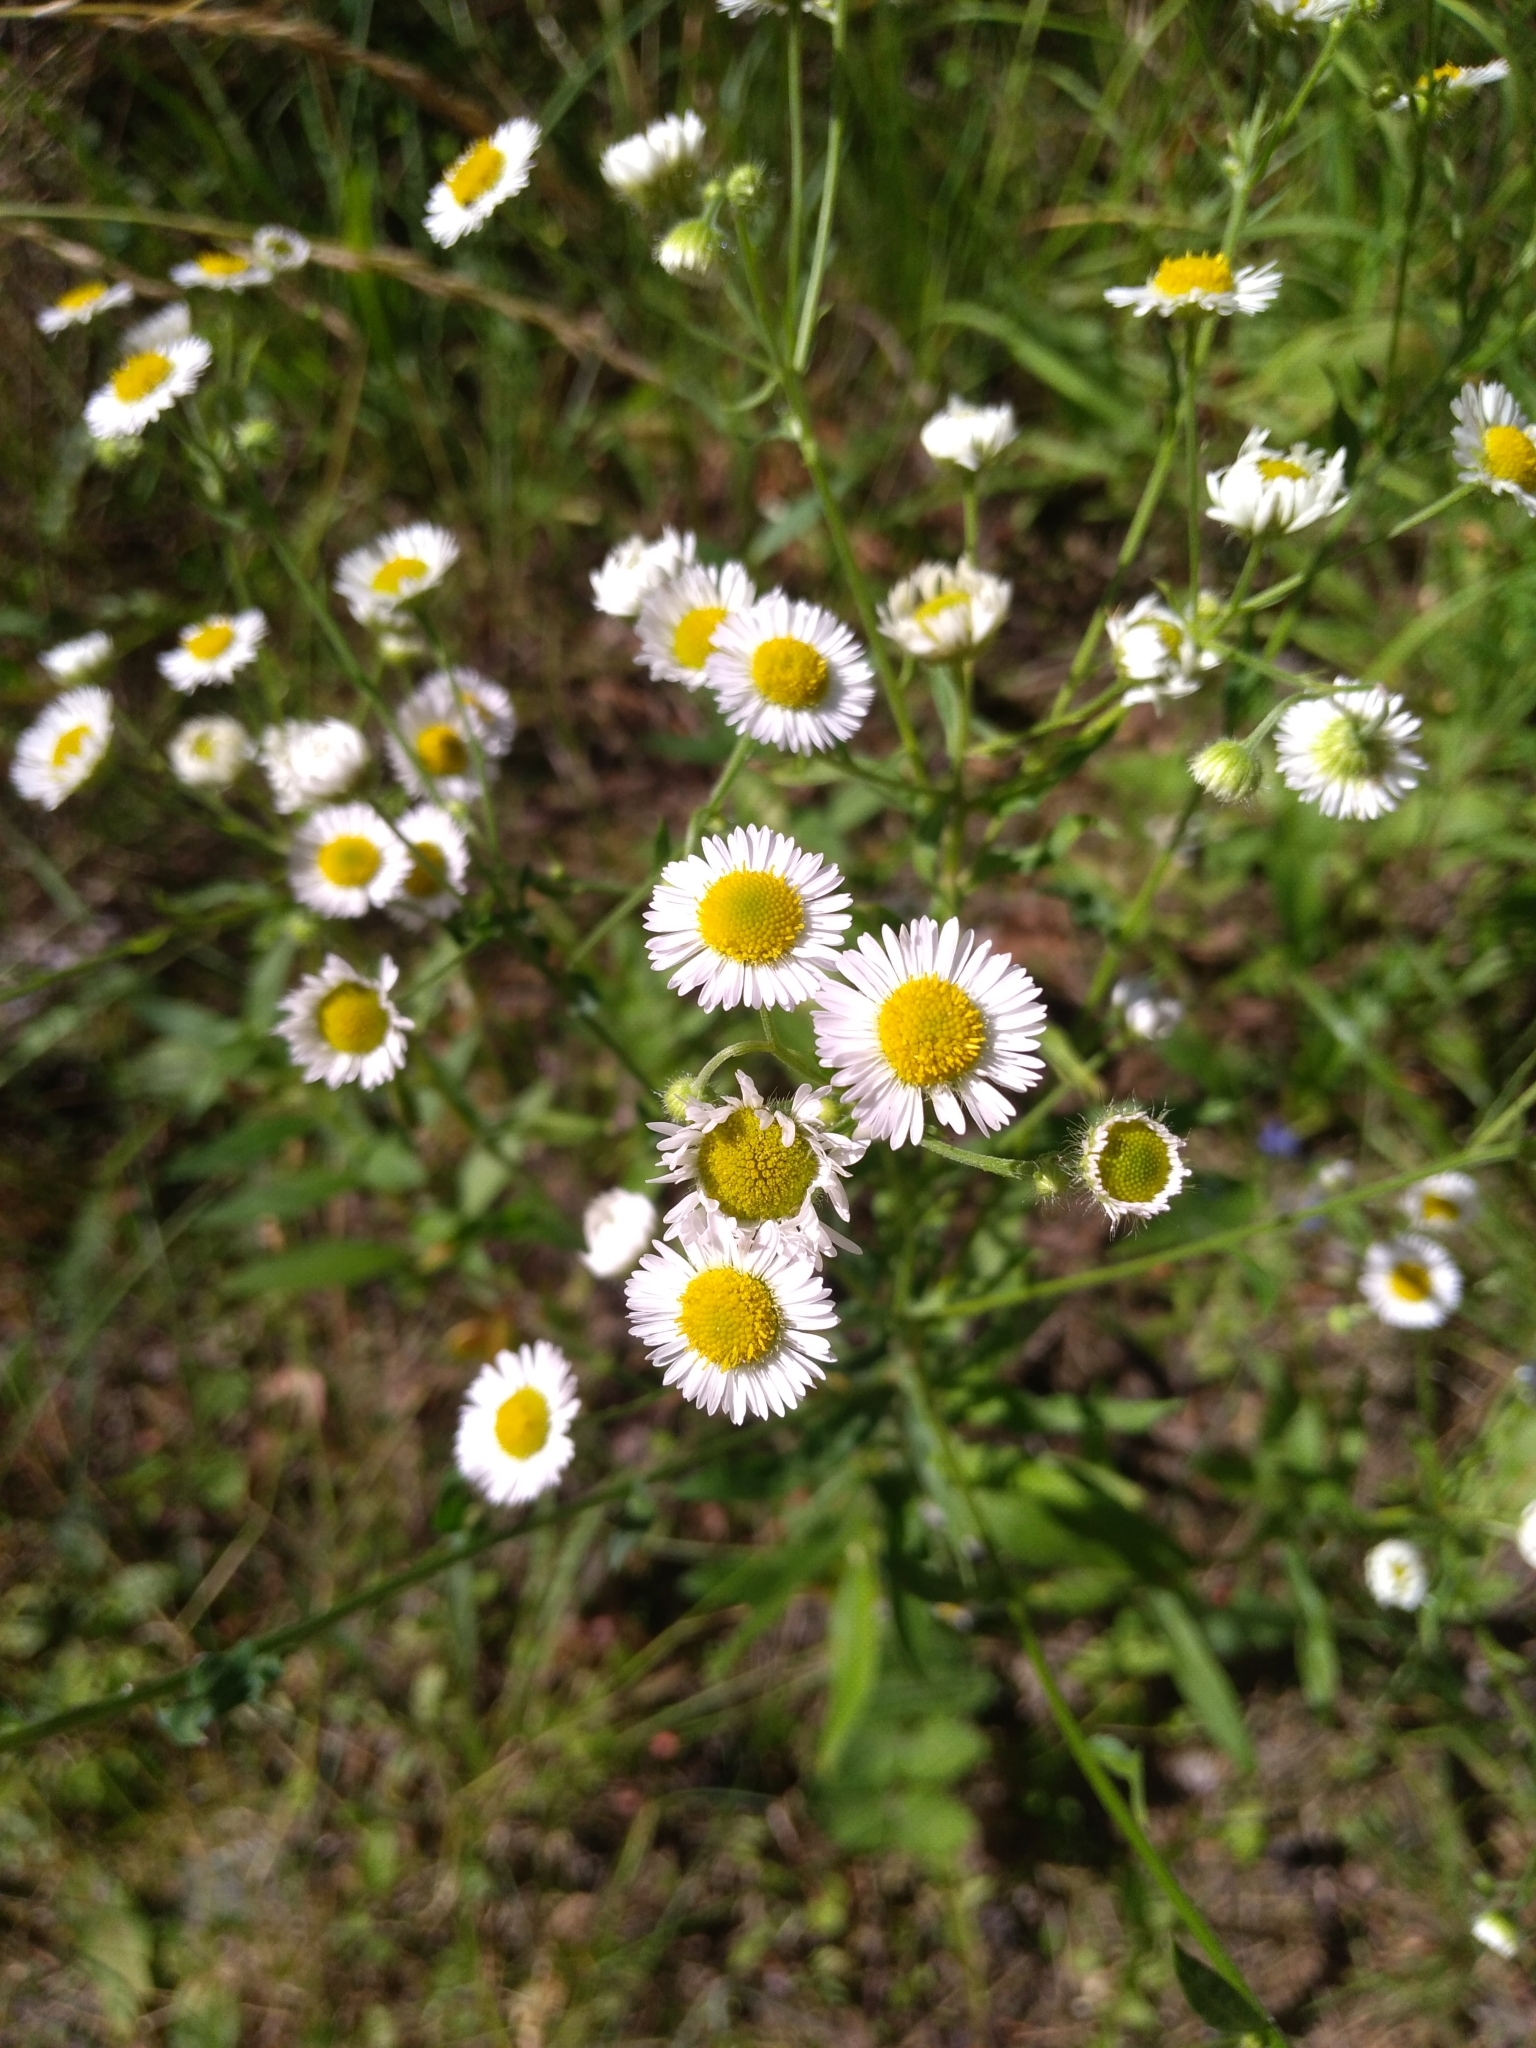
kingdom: Plantae
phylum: Tracheophyta
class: Magnoliopsida
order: Asterales
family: Asteraceae
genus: Erigeron
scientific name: Erigeron annuus
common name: Tall fleabane
